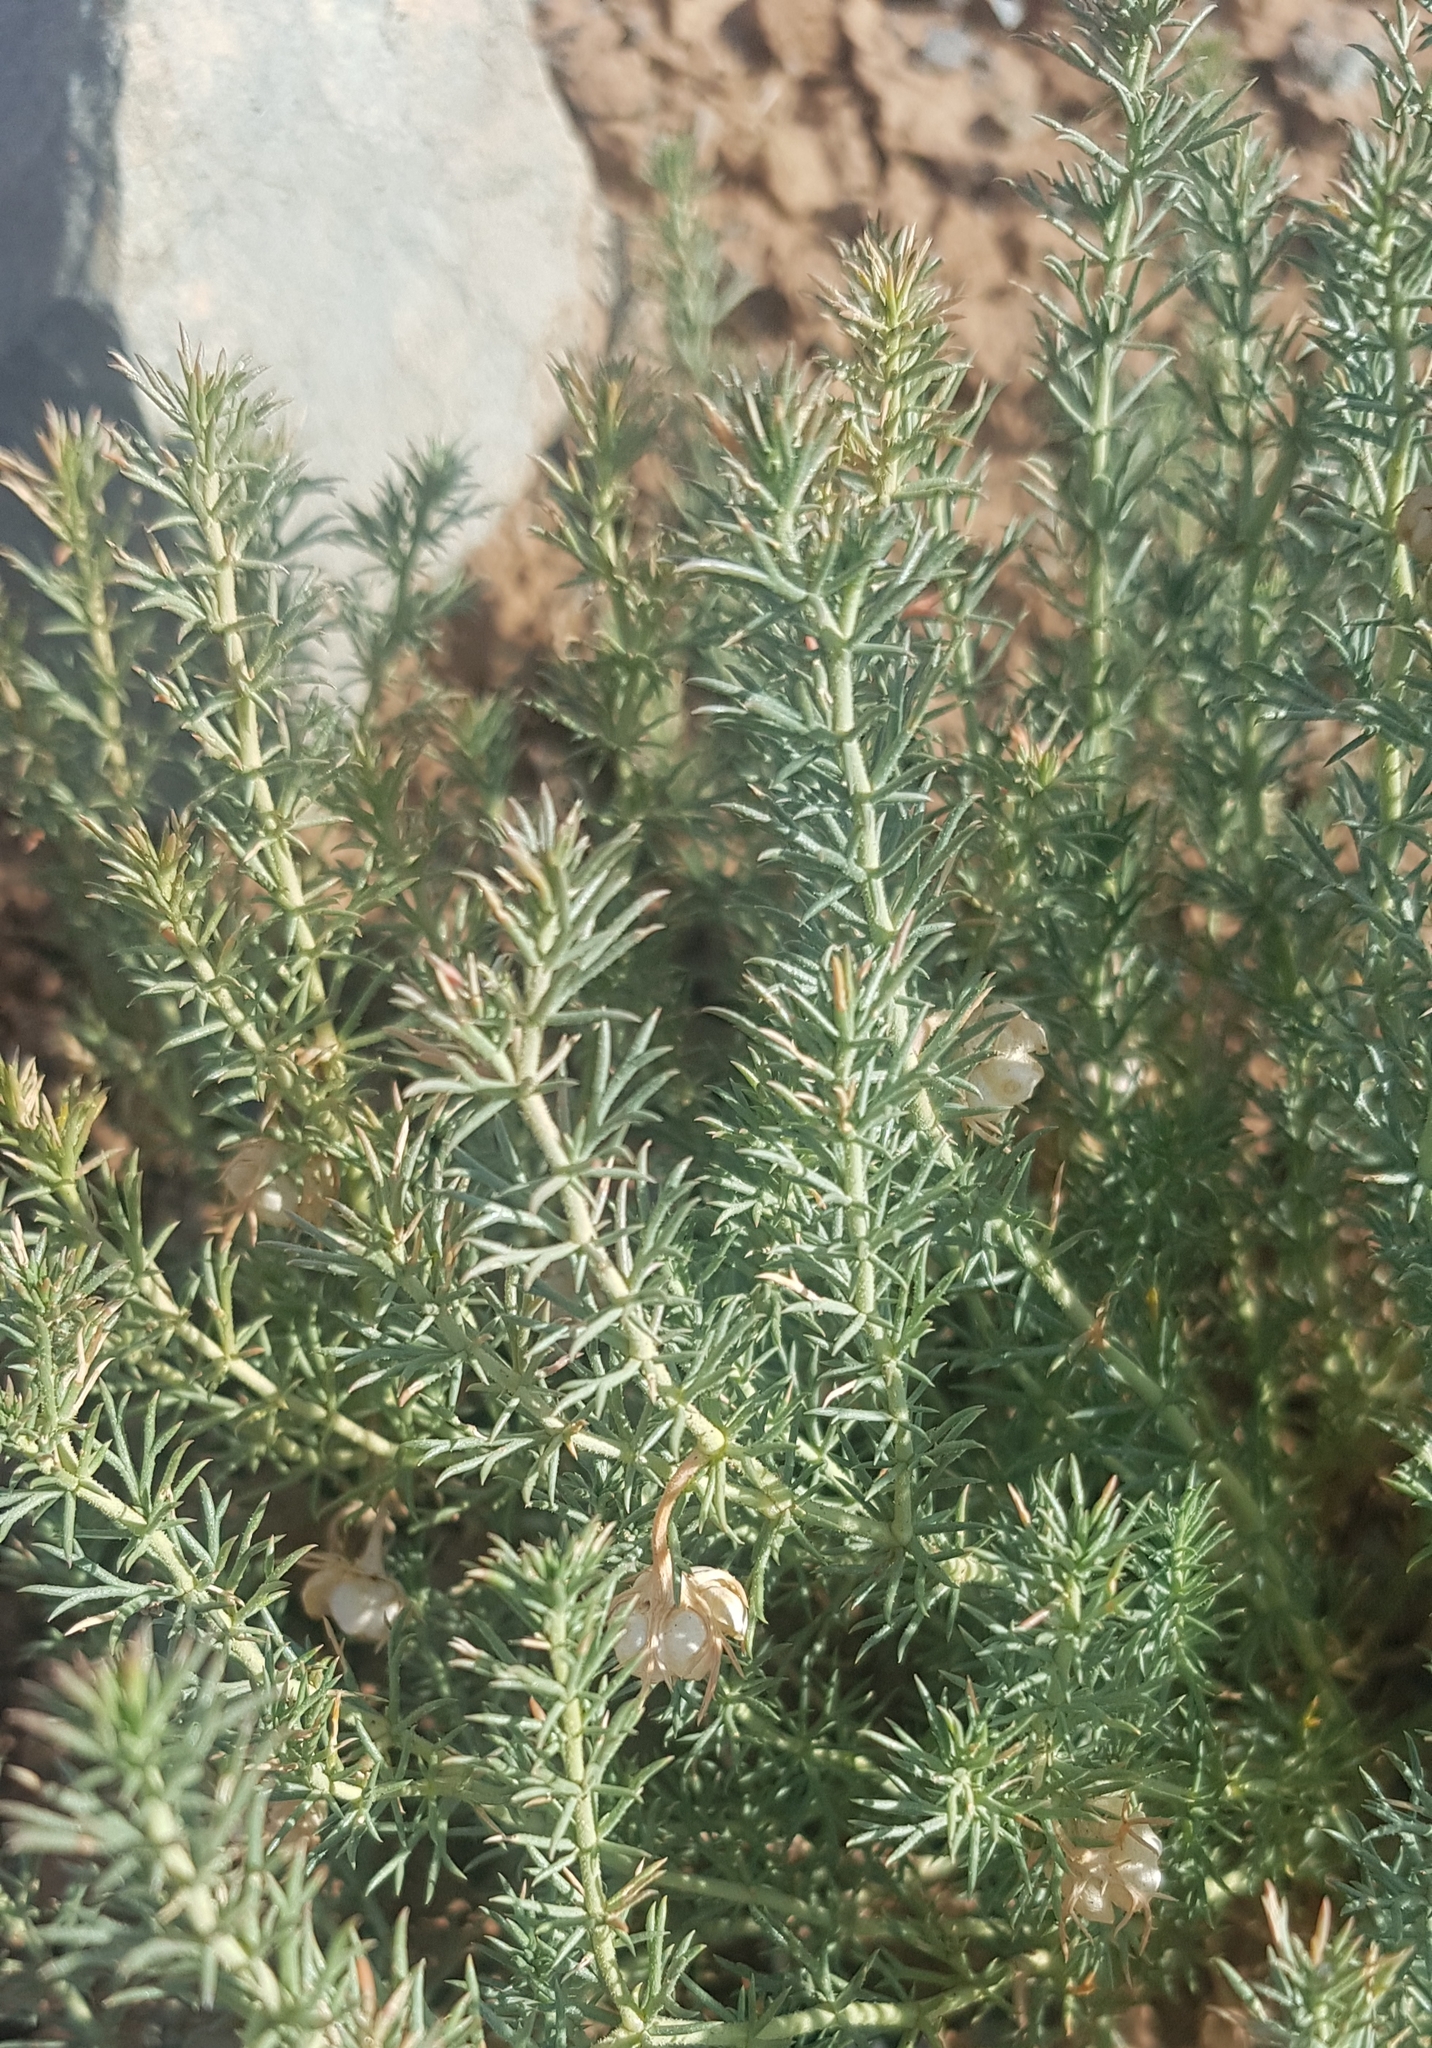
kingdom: Plantae
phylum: Tracheophyta
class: Magnoliopsida
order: Sapindales
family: Tetradiclidaceae
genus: Peganum
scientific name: Peganum harmala
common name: Harmal peganum
